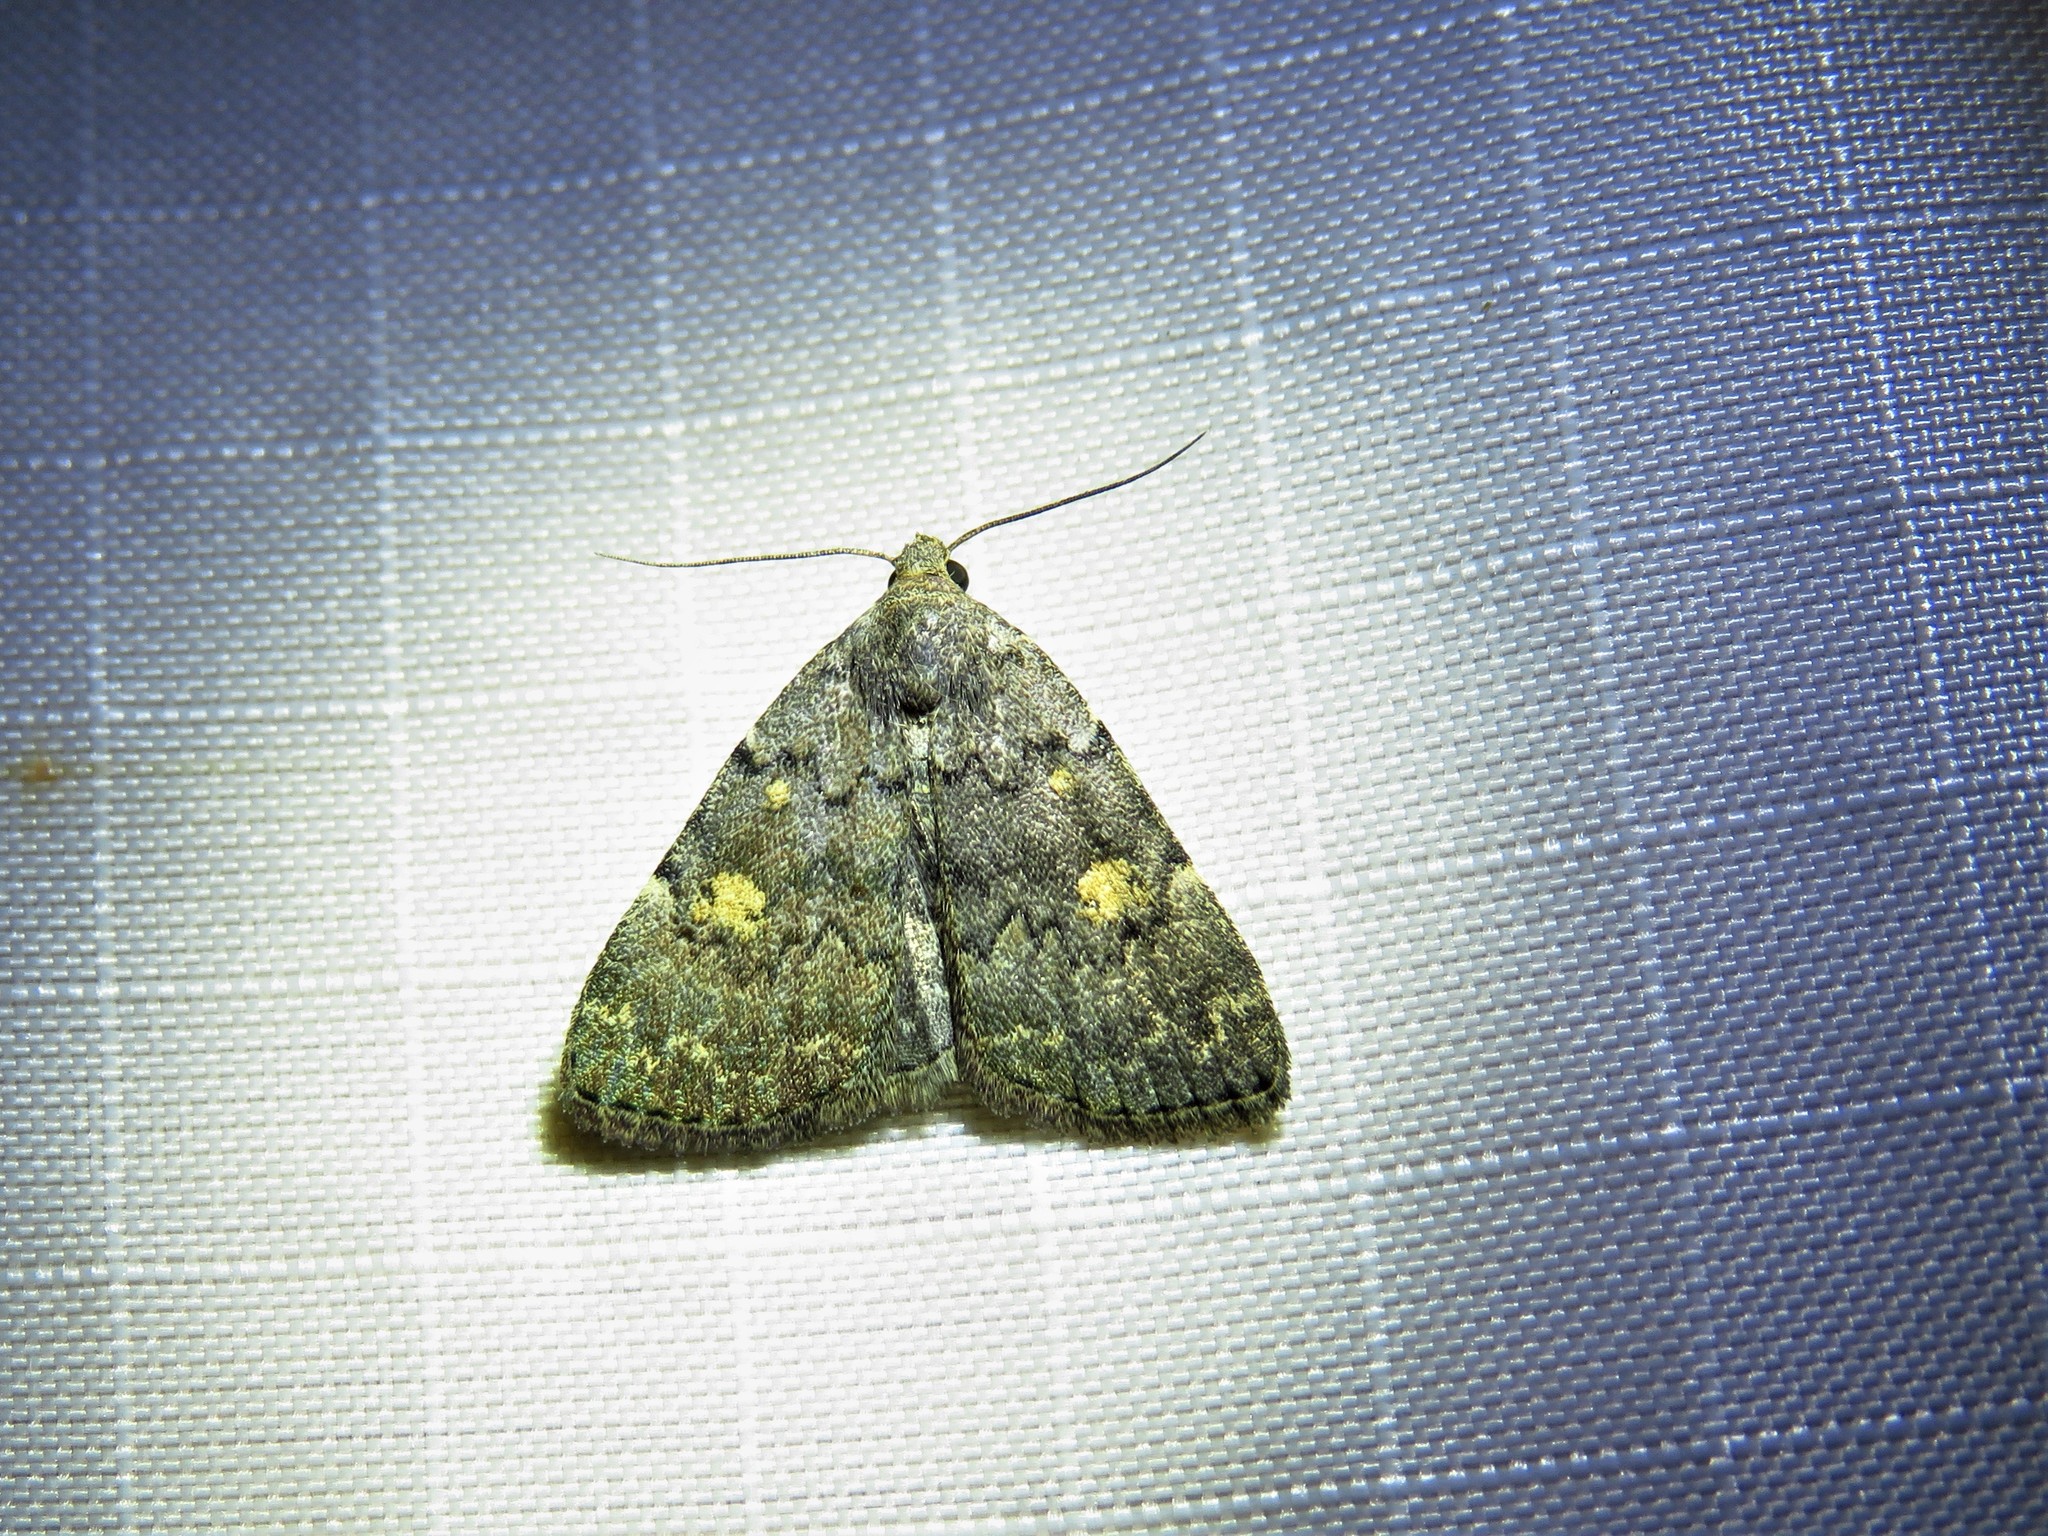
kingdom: Animalia
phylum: Arthropoda
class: Insecta
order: Lepidoptera
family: Erebidae
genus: Idia
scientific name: Idia aemula
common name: Common idia moth
